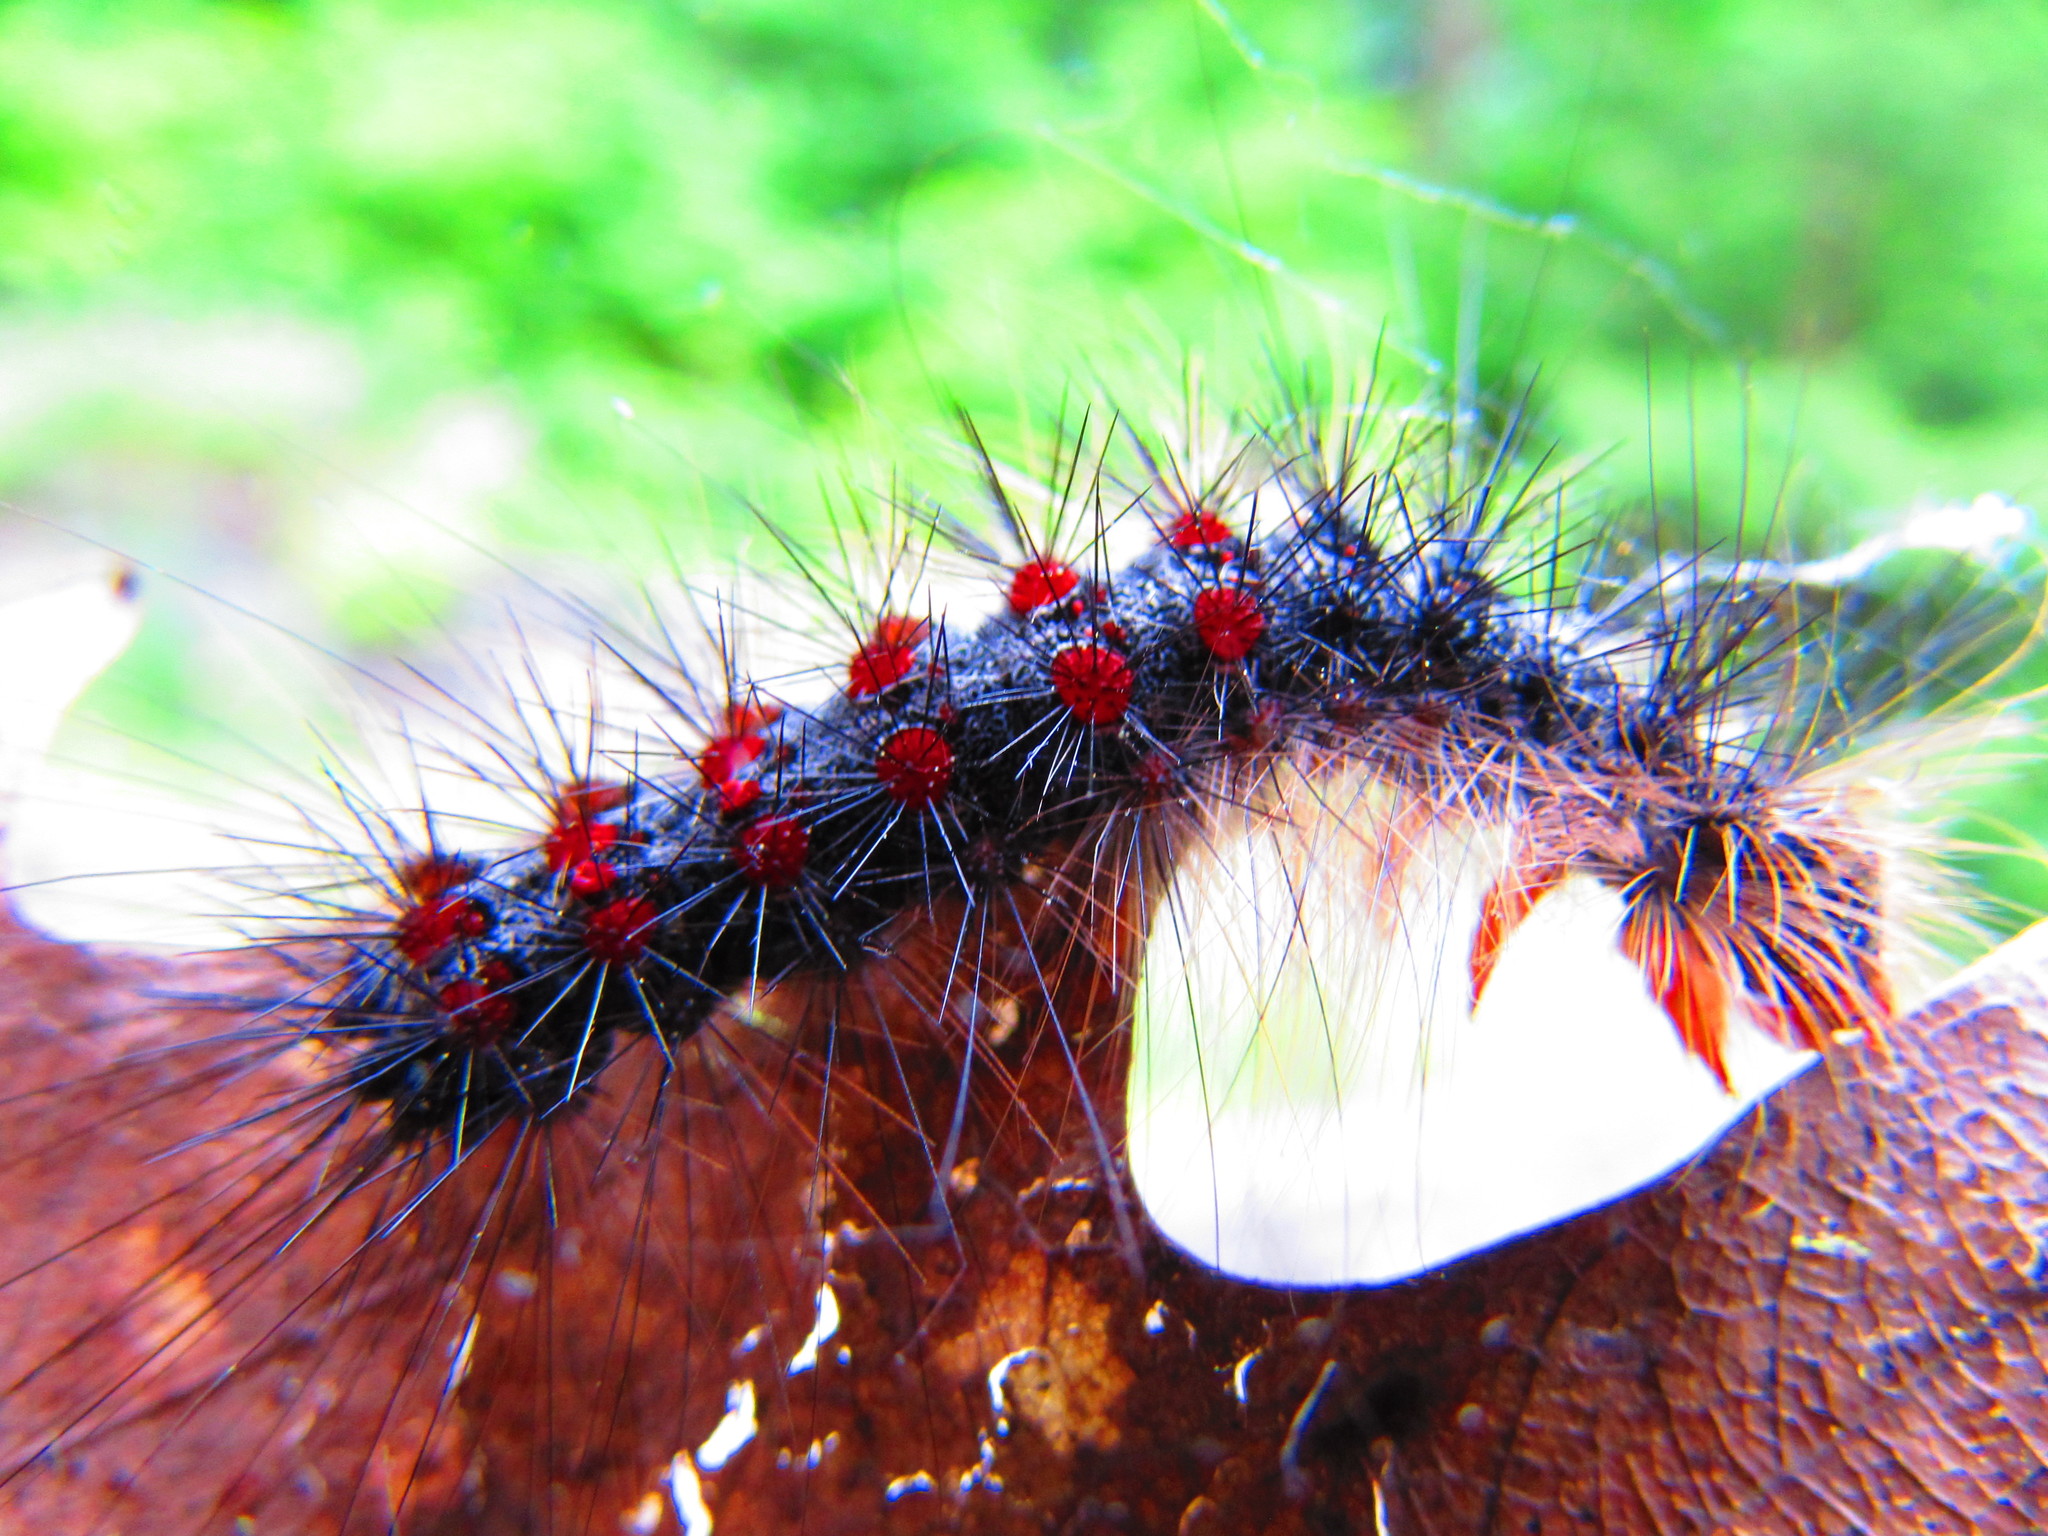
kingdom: Animalia
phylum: Arthropoda
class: Insecta
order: Lepidoptera
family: Erebidae
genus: Lymantria
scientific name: Lymantria dispar
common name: Gypsy moth
